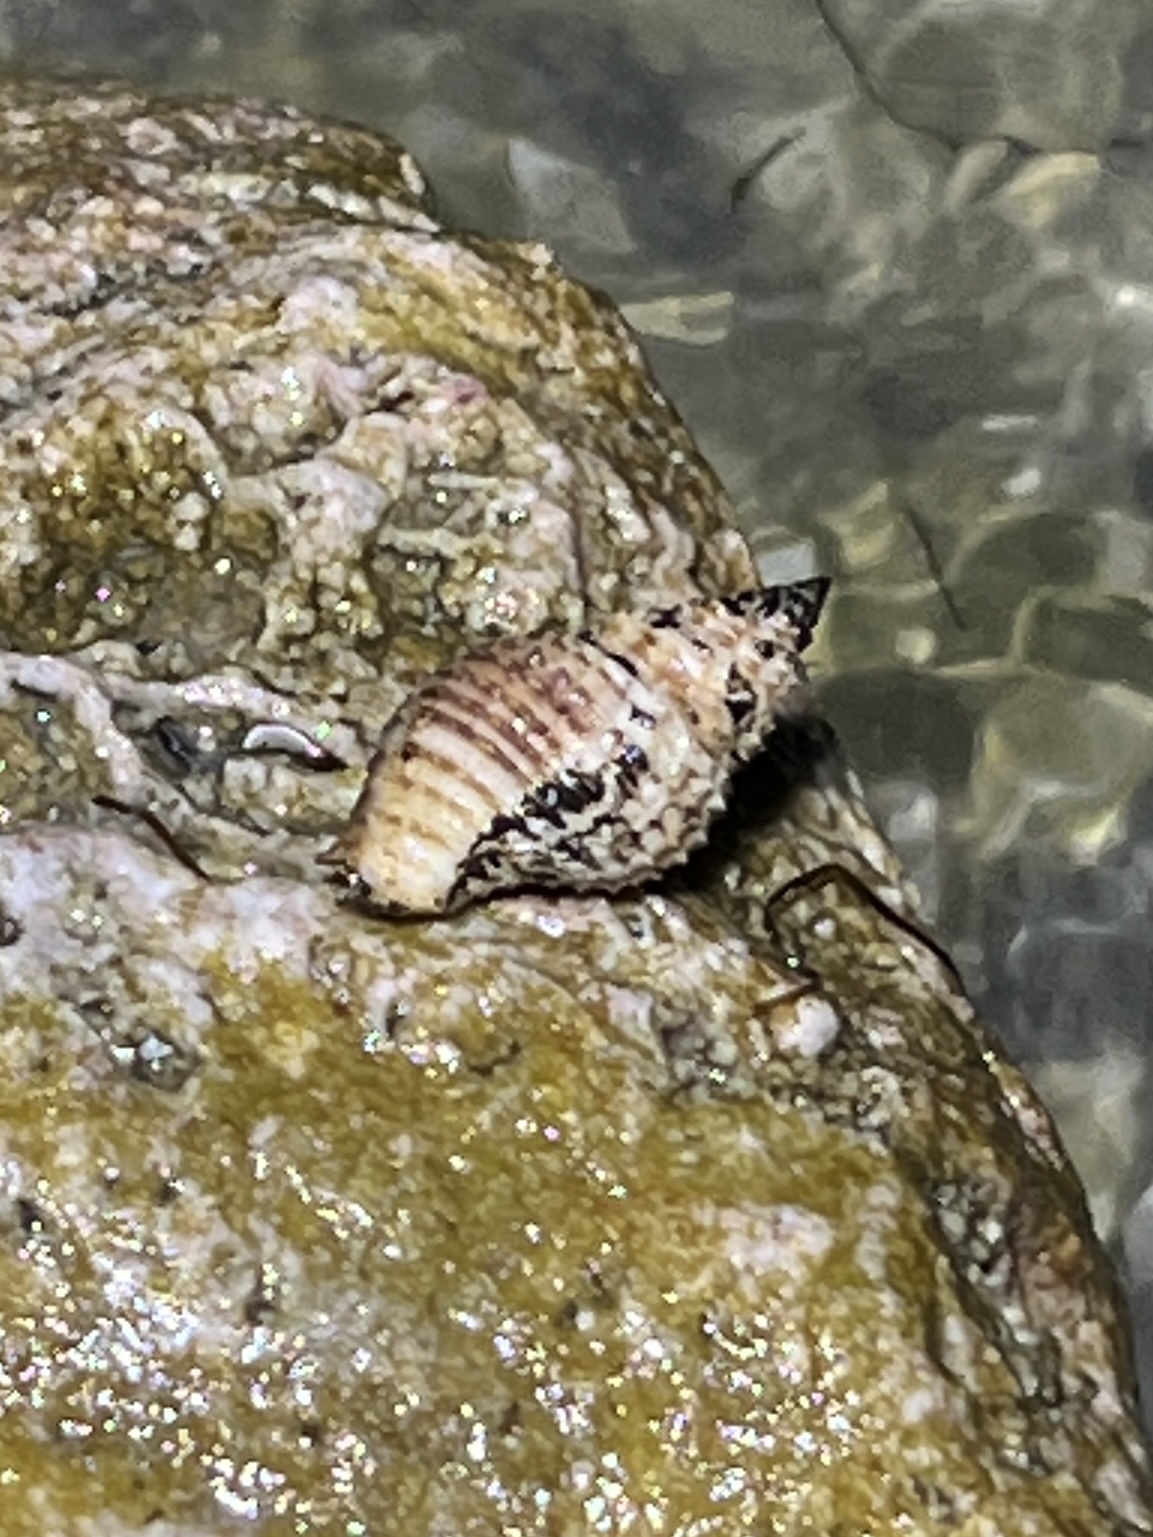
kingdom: Animalia
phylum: Mollusca
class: Gastropoda
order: Neogastropoda
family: Pisaniidae
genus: Solenosteira
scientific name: Solenosteira cancellaria
